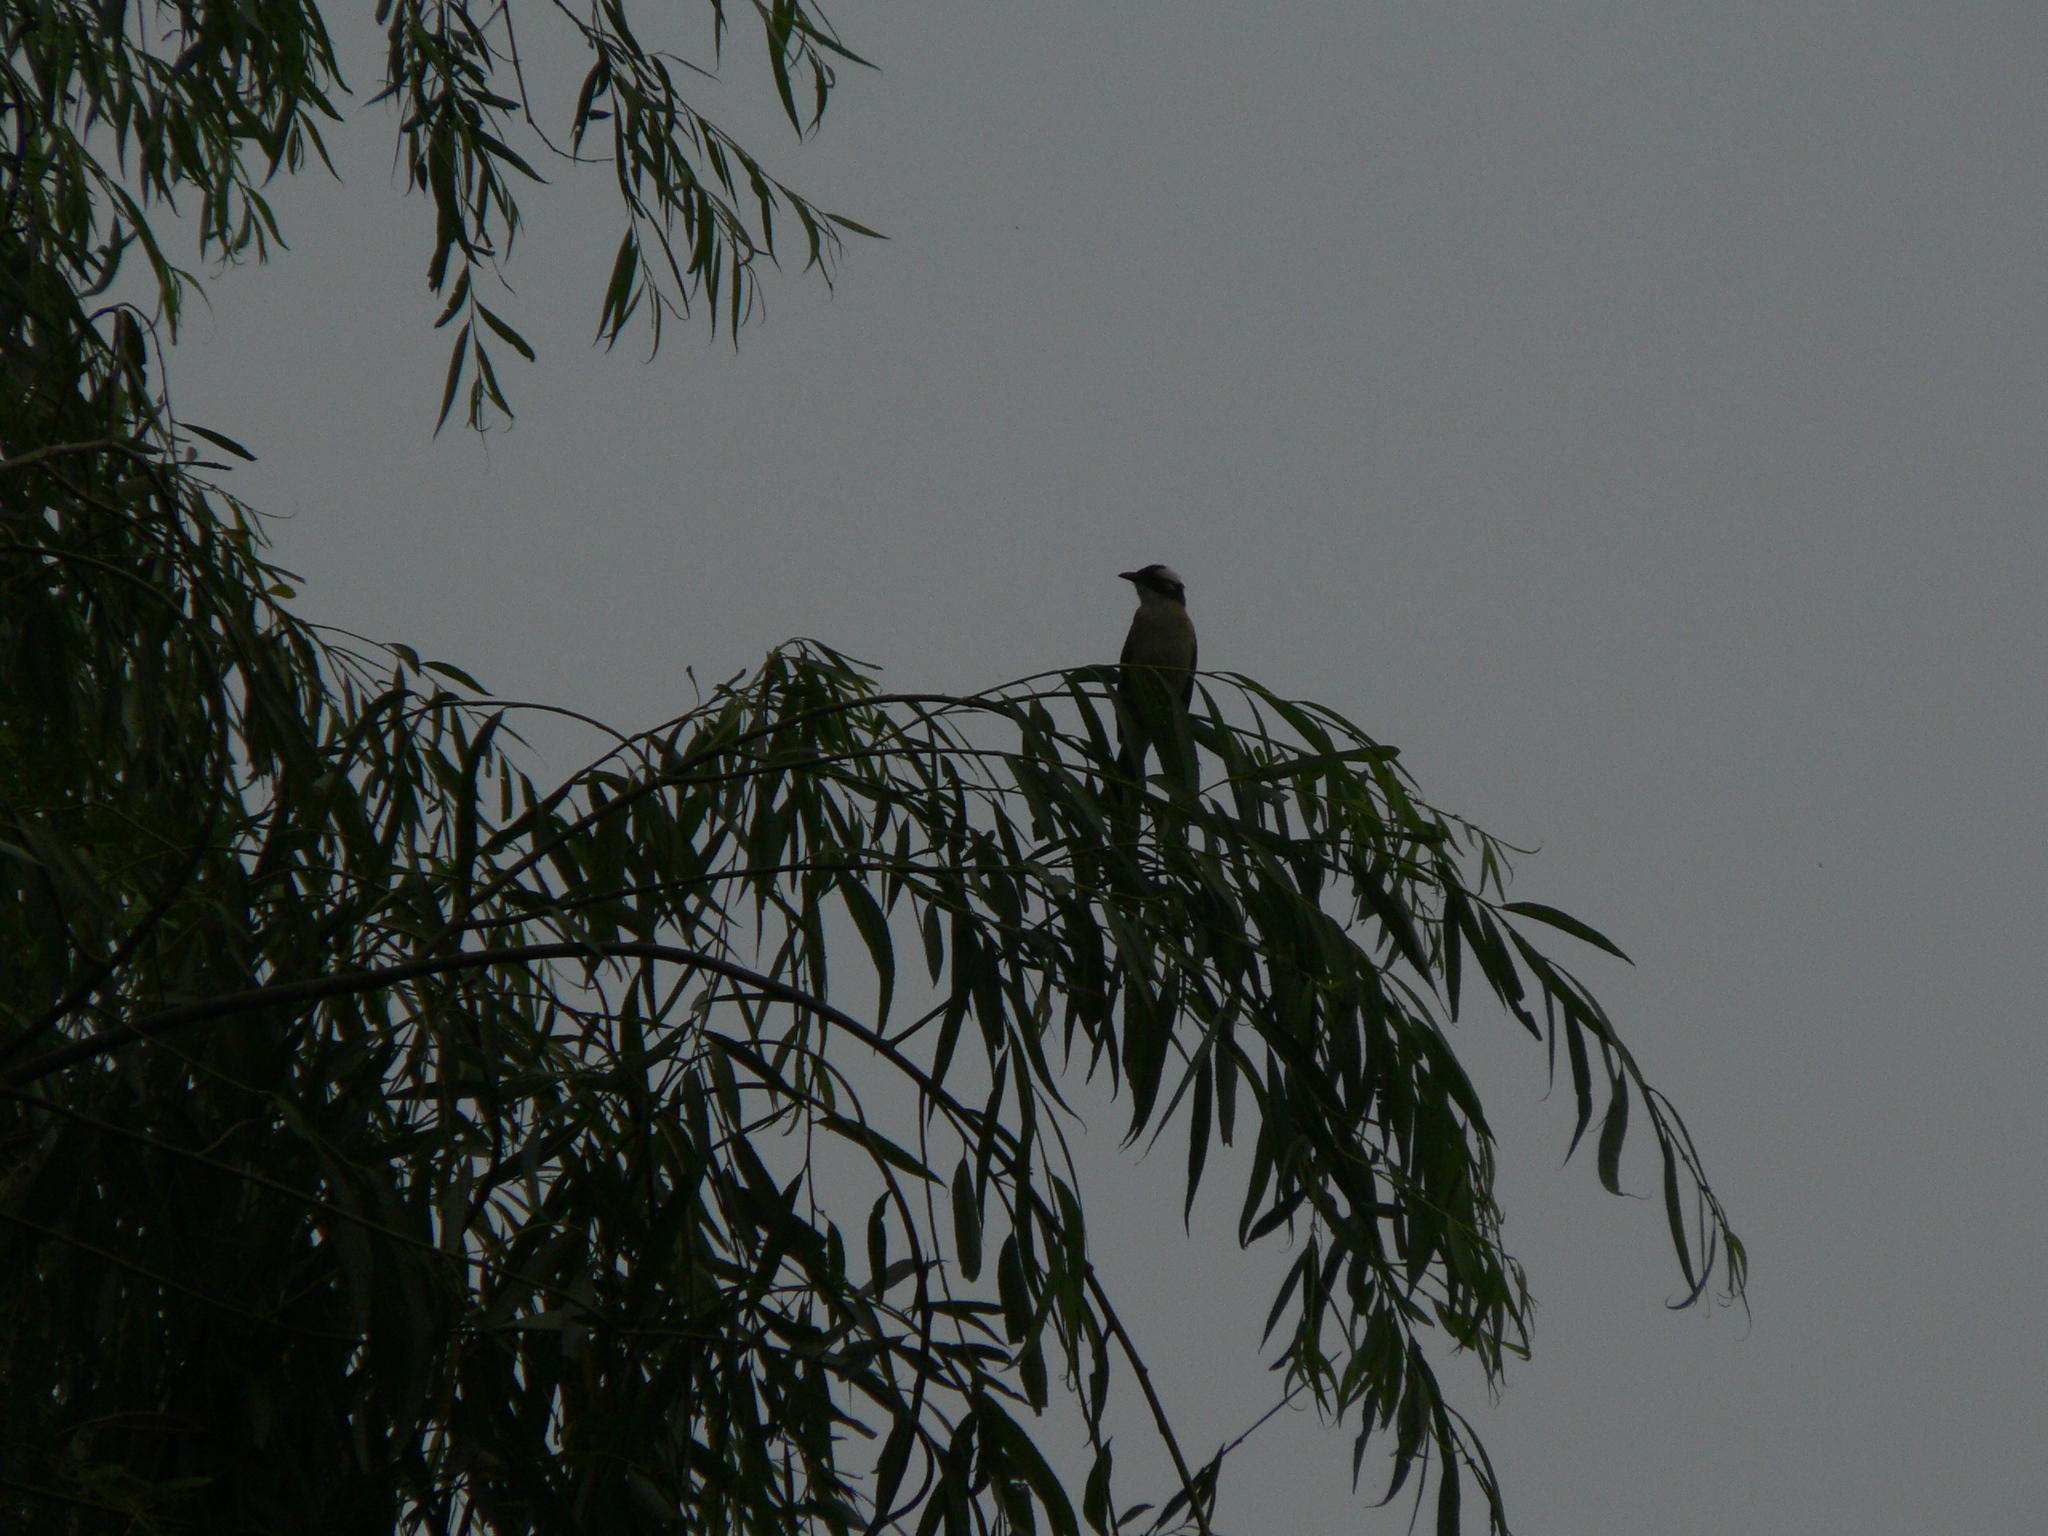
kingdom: Animalia
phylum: Chordata
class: Aves
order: Passeriformes
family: Pycnonotidae
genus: Pycnonotus
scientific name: Pycnonotus sinensis
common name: Light-vented bulbul
